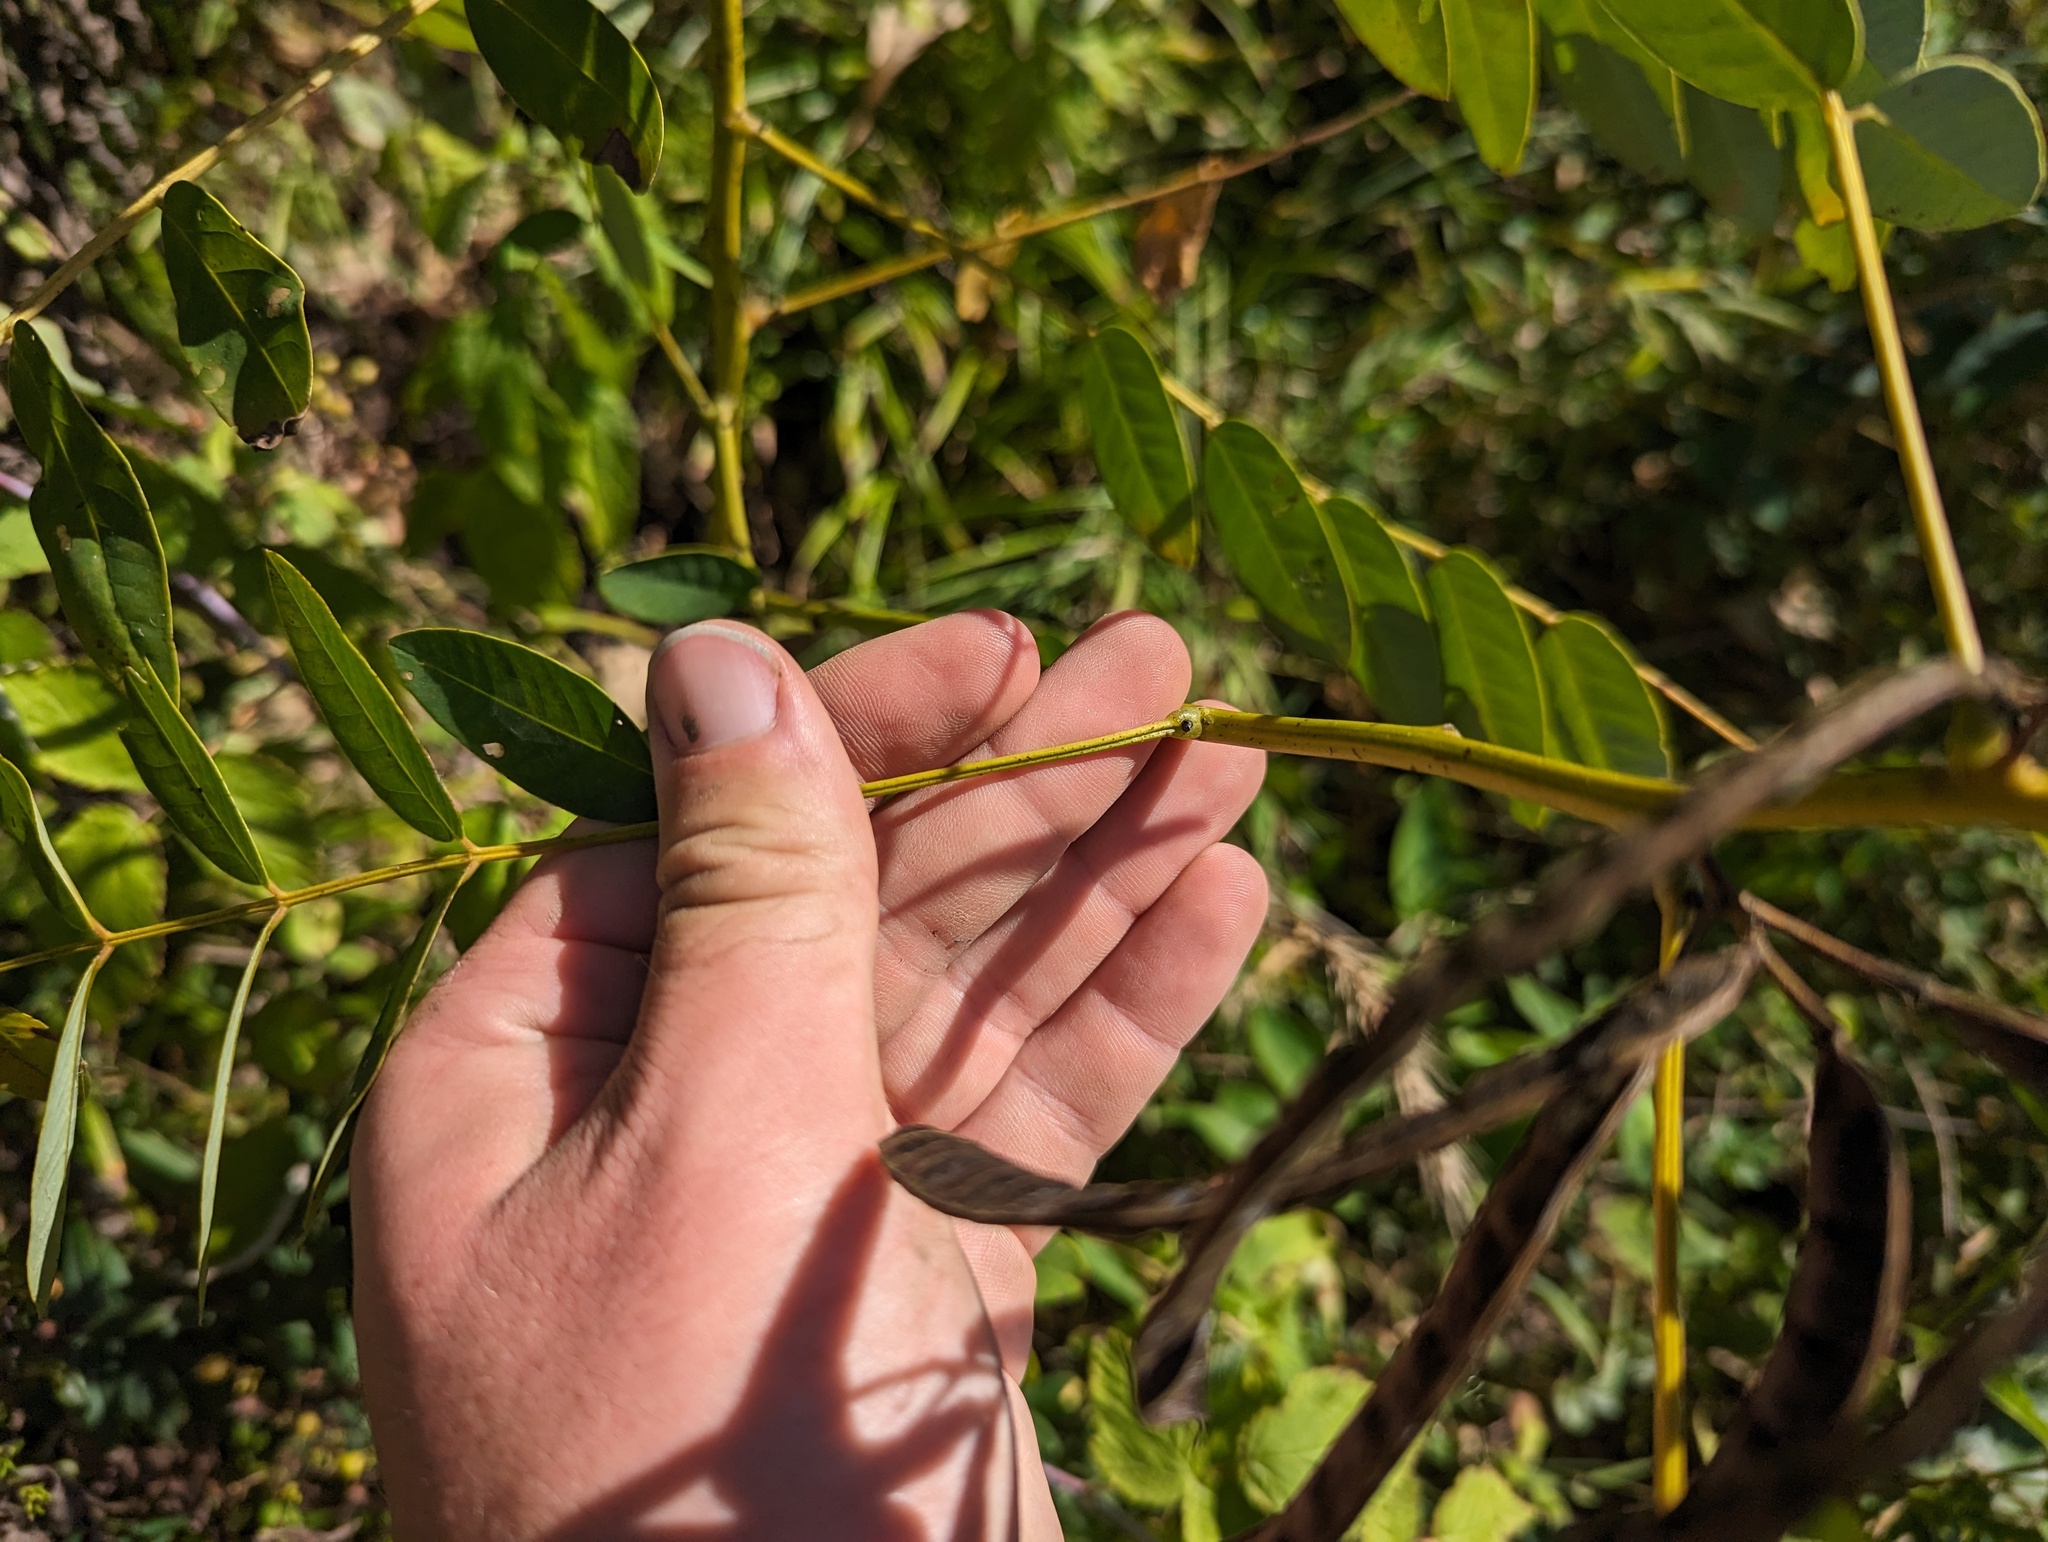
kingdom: Plantae
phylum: Tracheophyta
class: Magnoliopsida
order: Fabales
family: Fabaceae
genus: Senna
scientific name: Senna marilandica
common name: American senna
